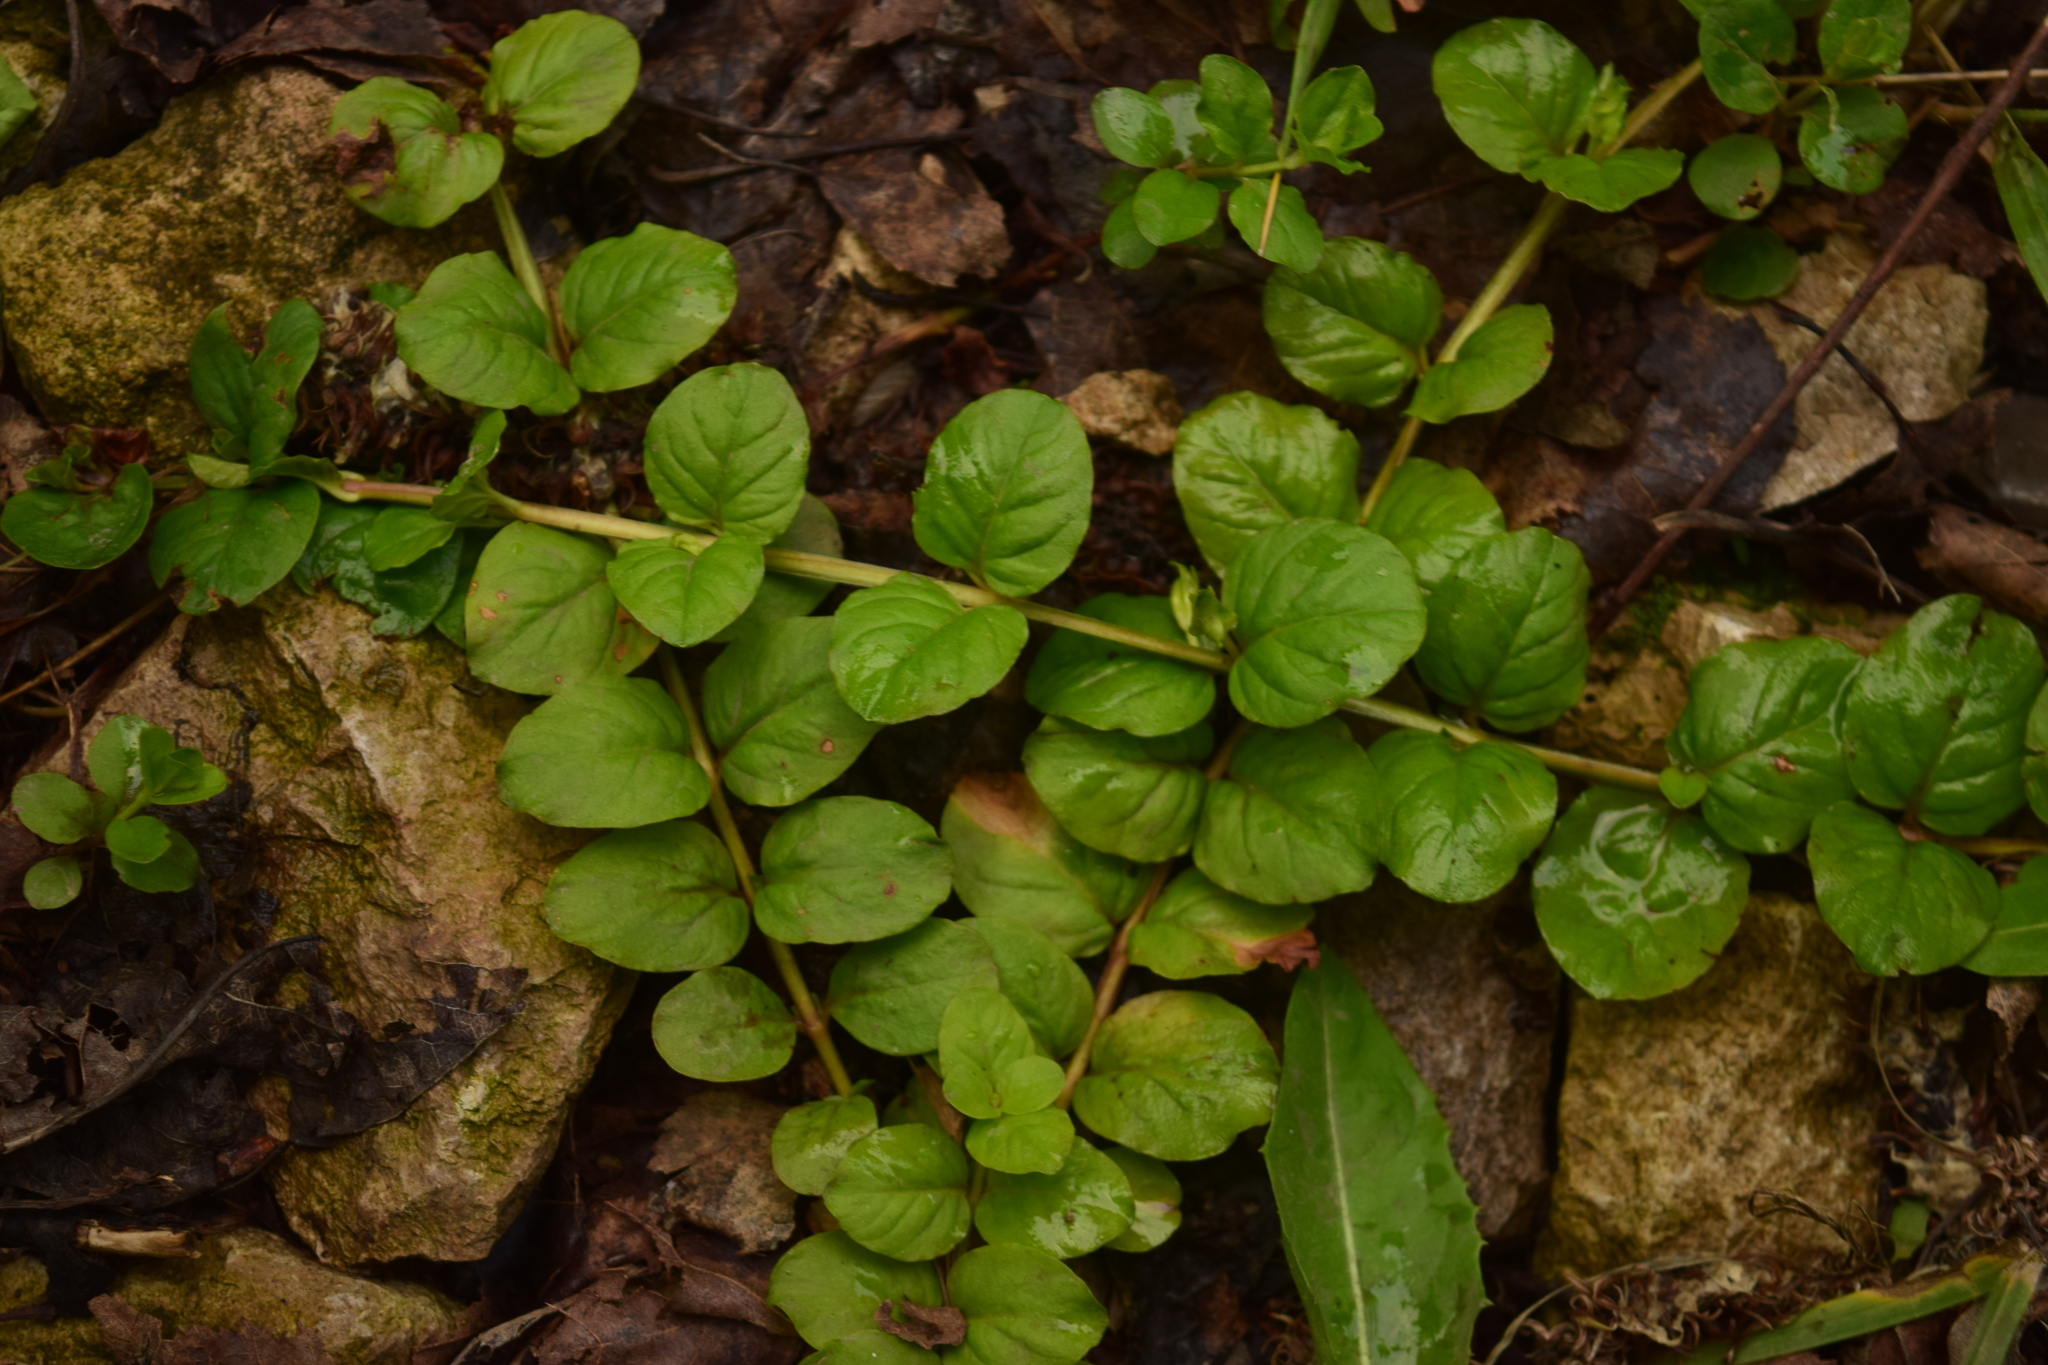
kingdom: Plantae
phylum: Tracheophyta
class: Magnoliopsida
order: Ericales
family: Primulaceae
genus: Lysimachia
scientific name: Lysimachia nummularia
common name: Moneywort
